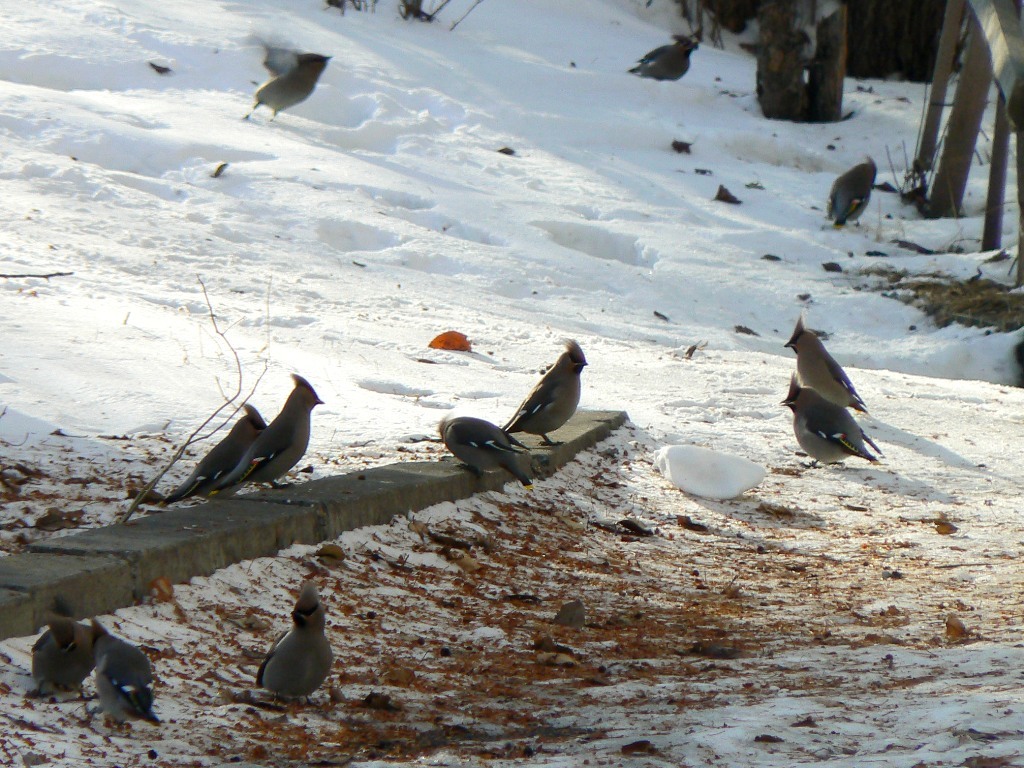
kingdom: Animalia
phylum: Chordata
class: Aves
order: Passeriformes
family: Bombycillidae
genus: Bombycilla
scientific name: Bombycilla garrulus
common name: Bohemian waxwing
